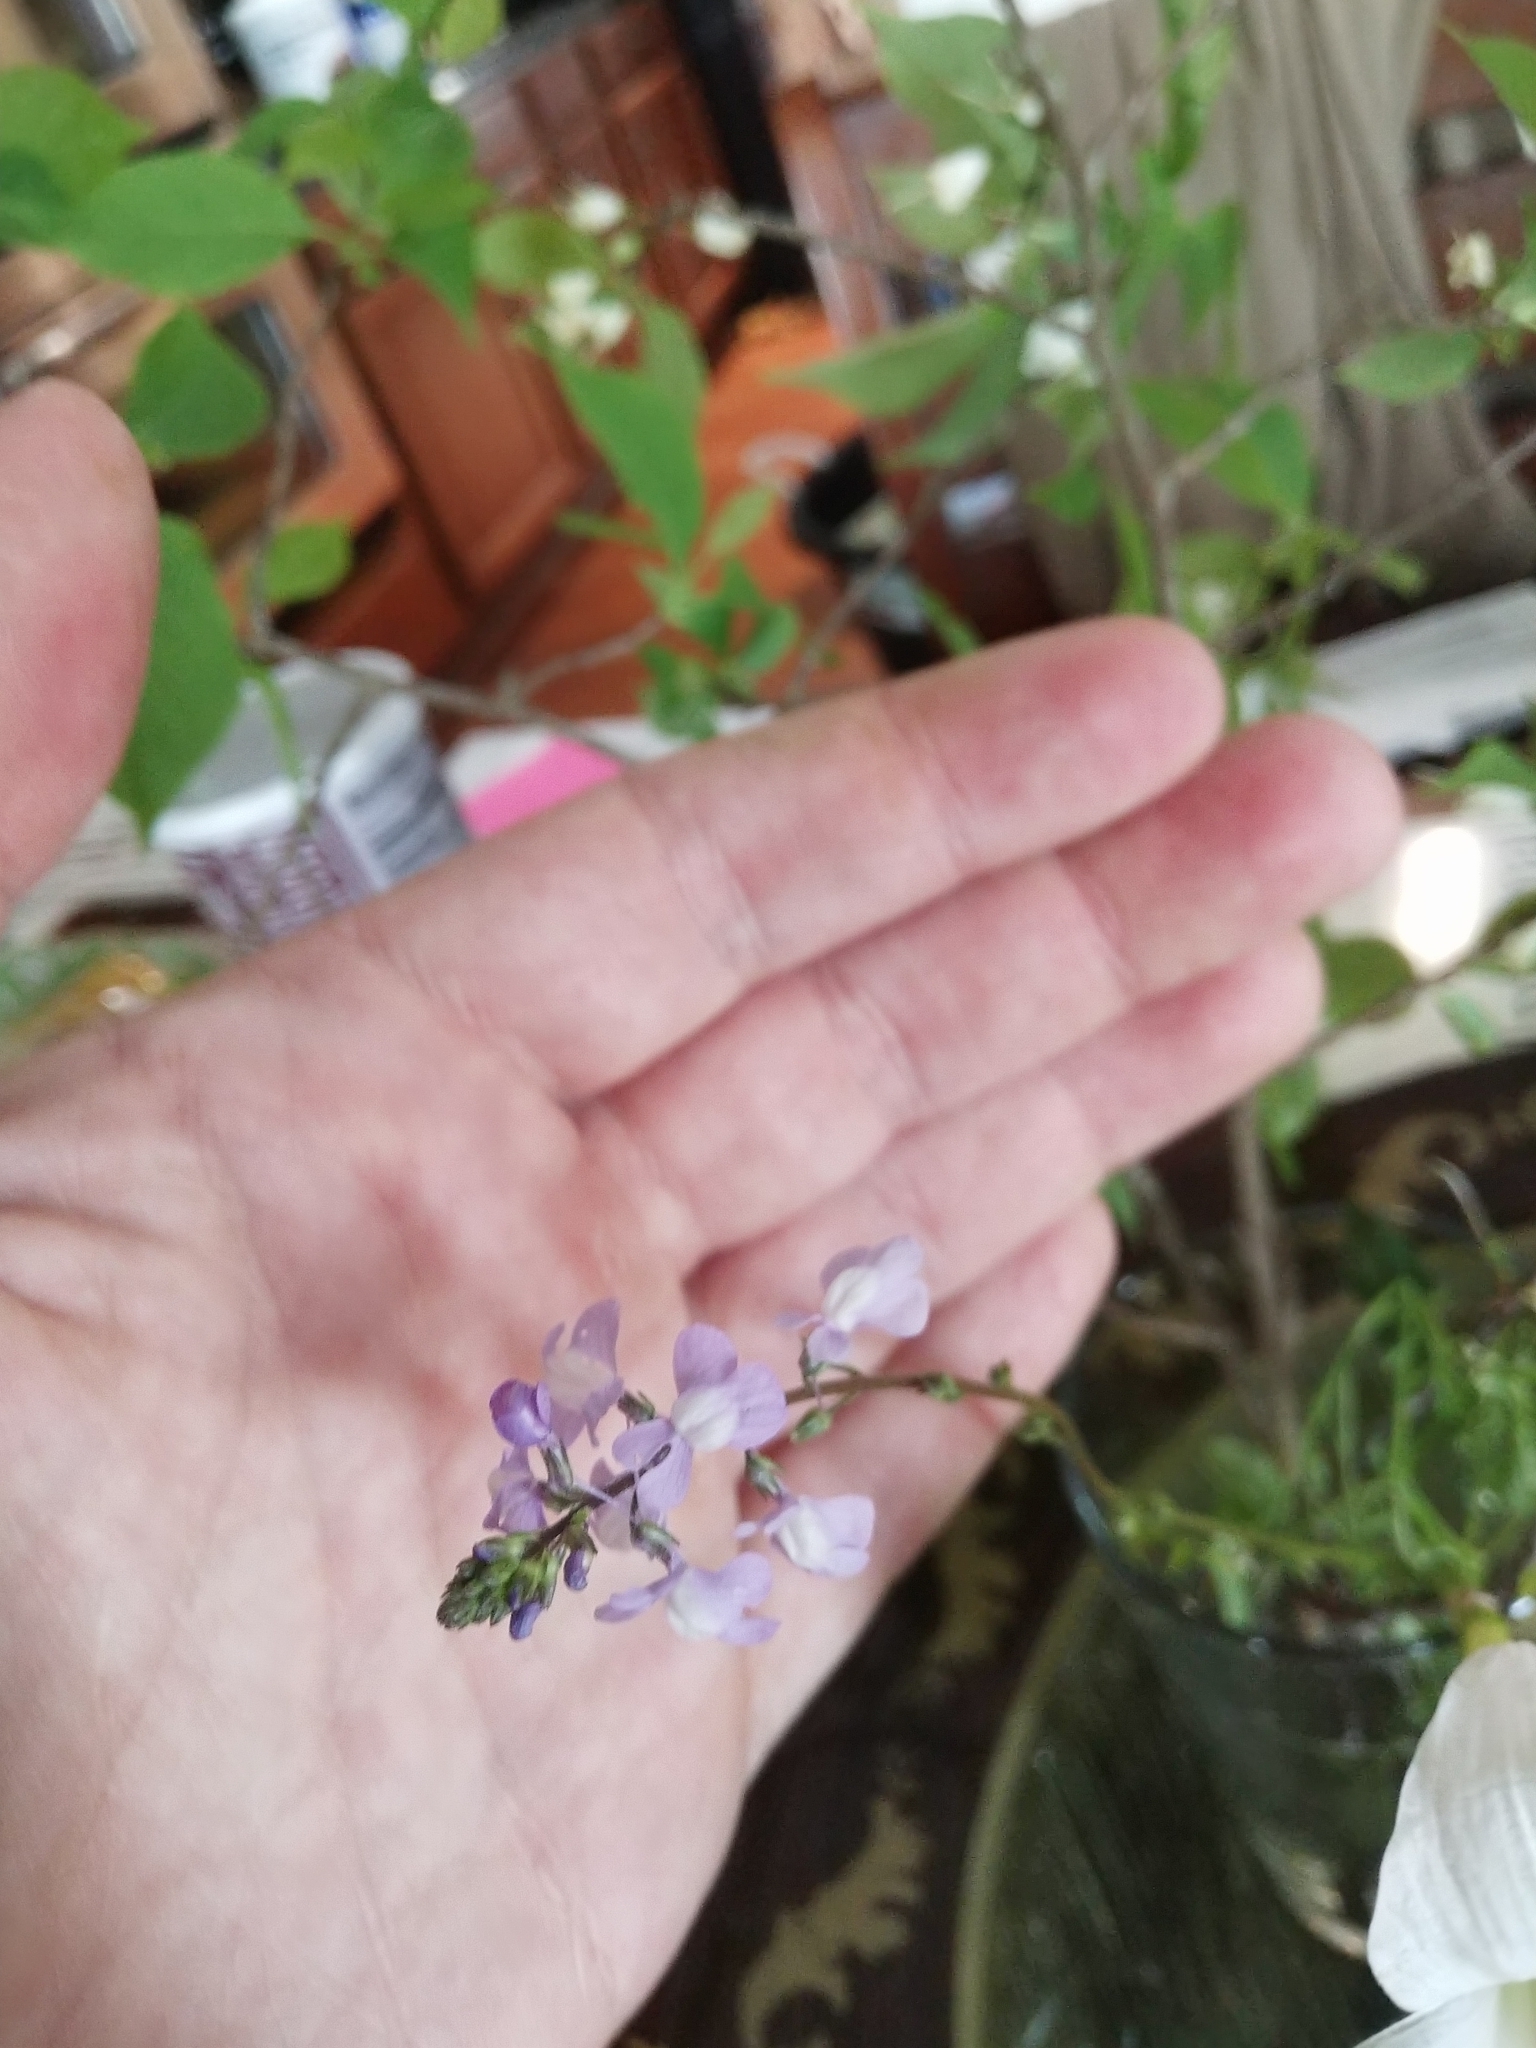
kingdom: Plantae
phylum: Tracheophyta
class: Magnoliopsida
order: Lamiales
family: Plantaginaceae
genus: Nuttallanthus
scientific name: Nuttallanthus canadensis
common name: Blue toadflax
